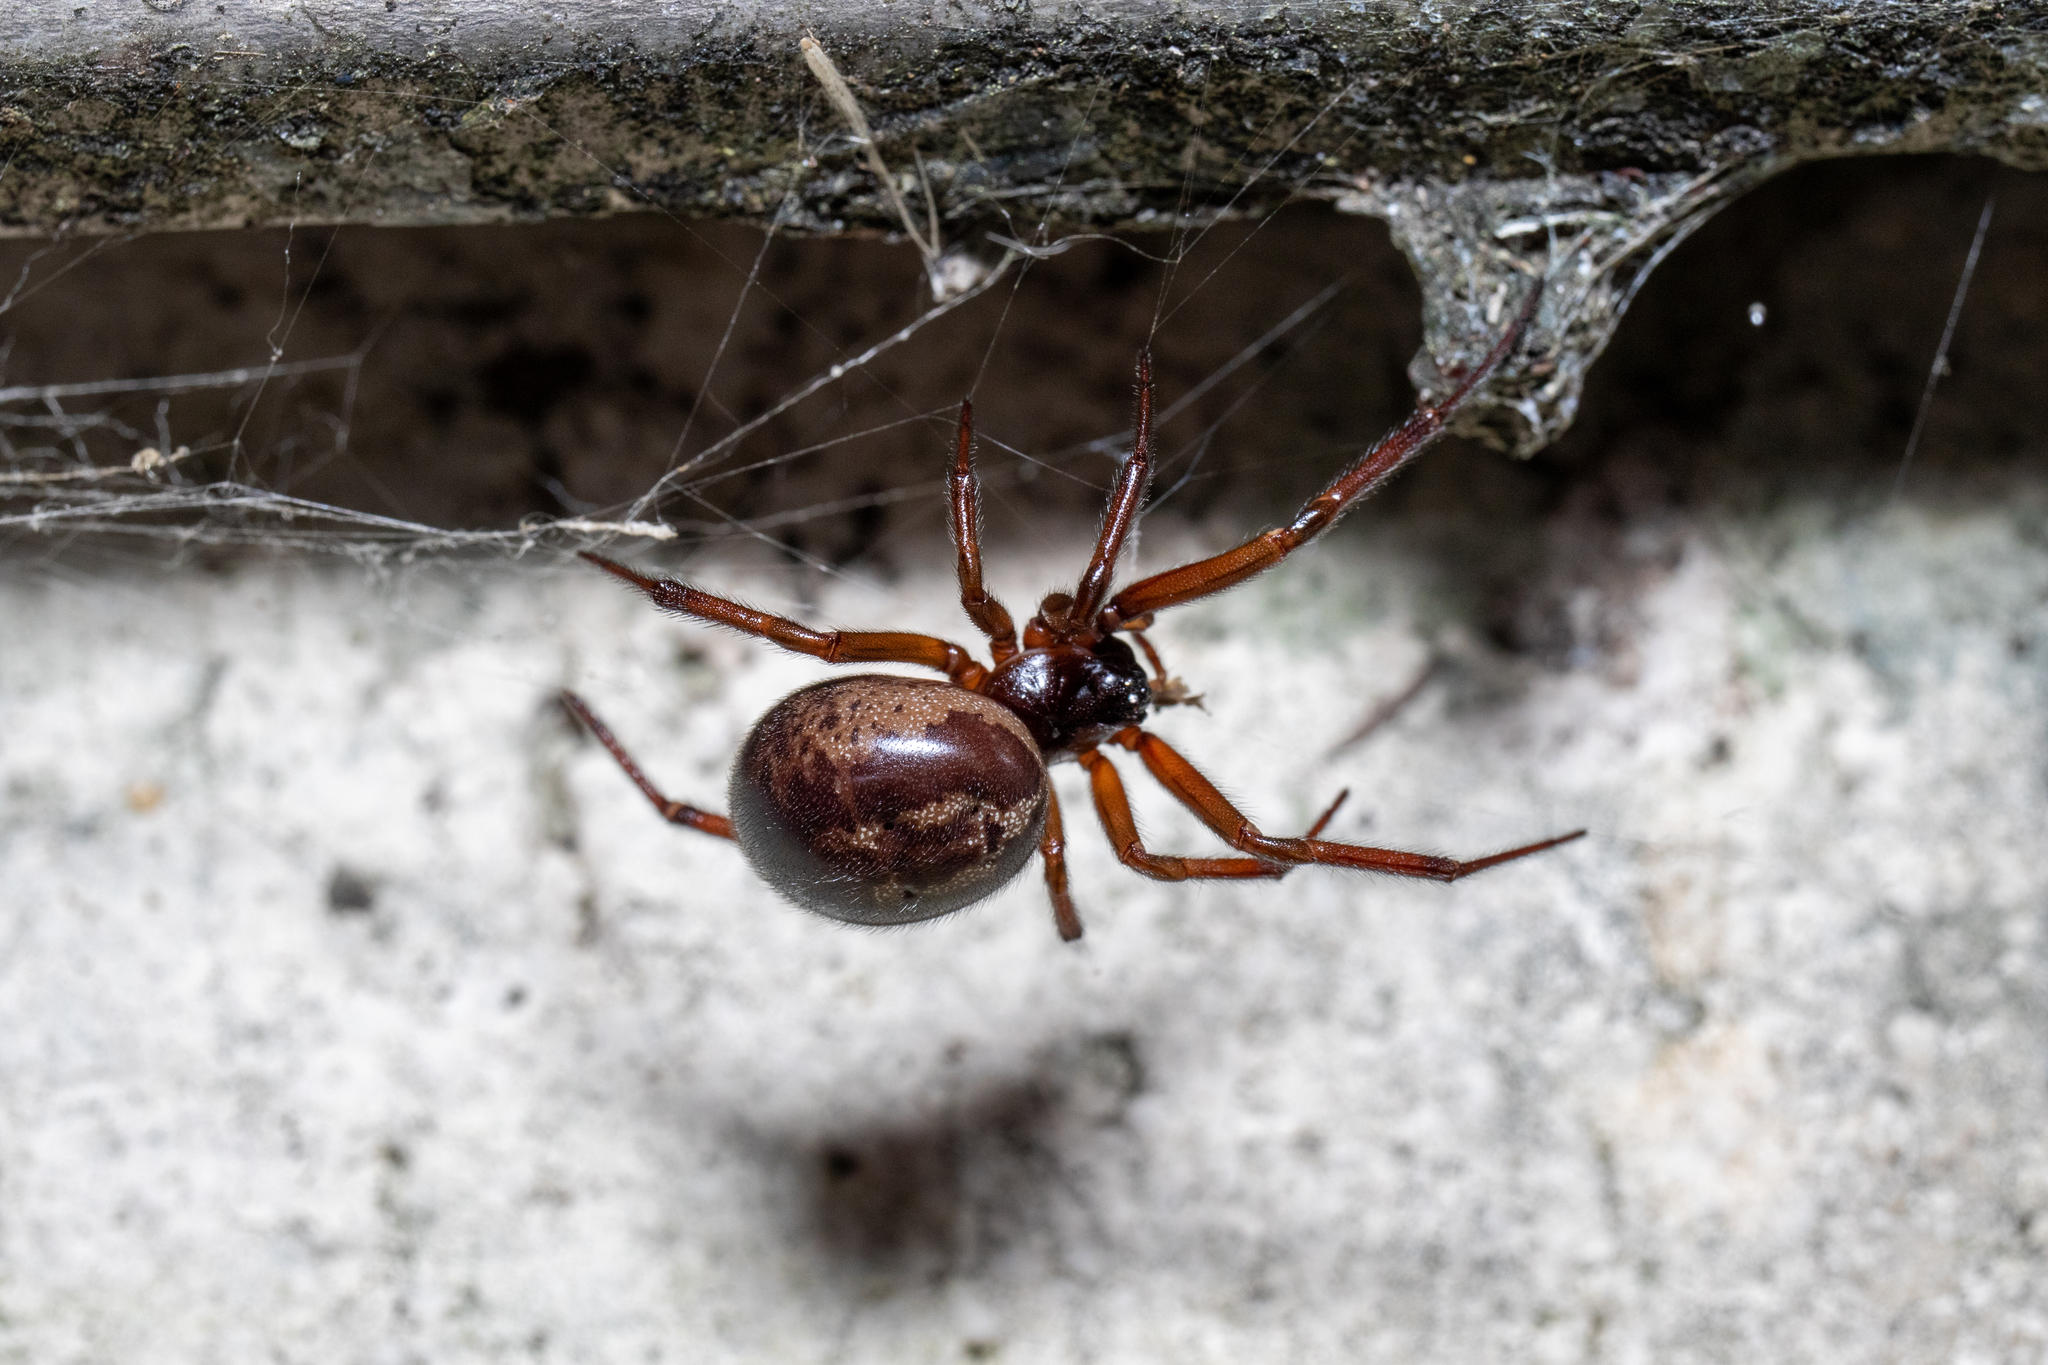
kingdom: Animalia
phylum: Arthropoda
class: Arachnida
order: Araneae
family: Theridiidae
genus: Steatoda
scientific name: Steatoda nobilis
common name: Cobweb weaver
